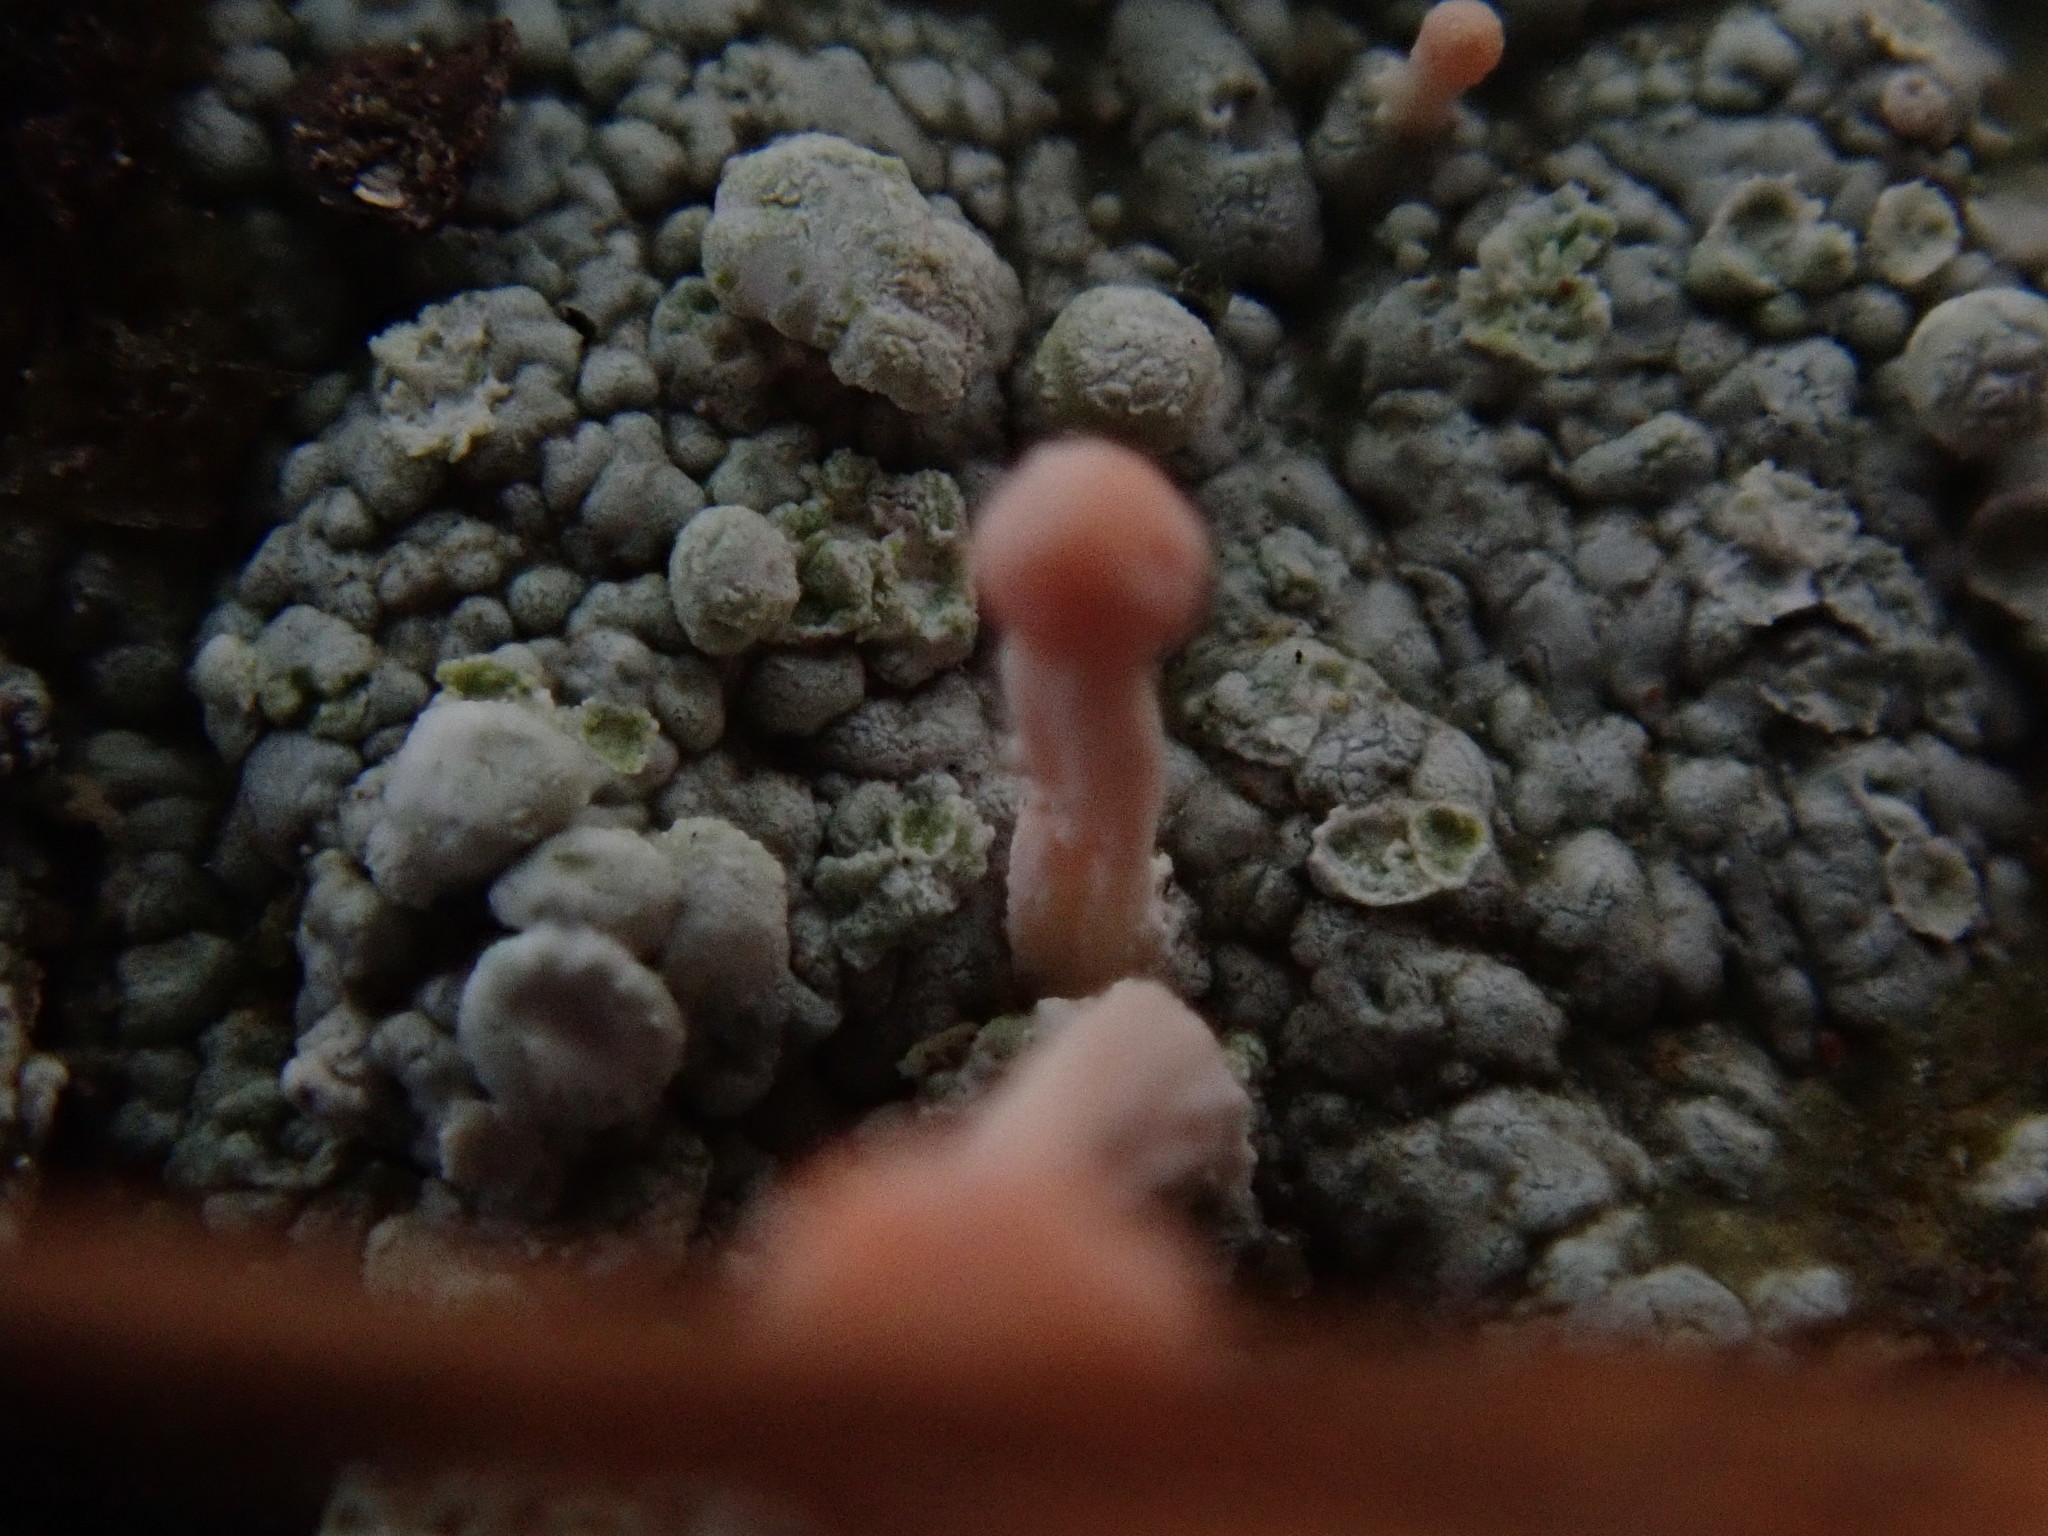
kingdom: Fungi
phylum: Ascomycota
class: Lecanoromycetes
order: Pertusariales
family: Icmadophilaceae
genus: Dibaeis
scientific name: Dibaeis baeomyces
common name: Pink earth lichen
